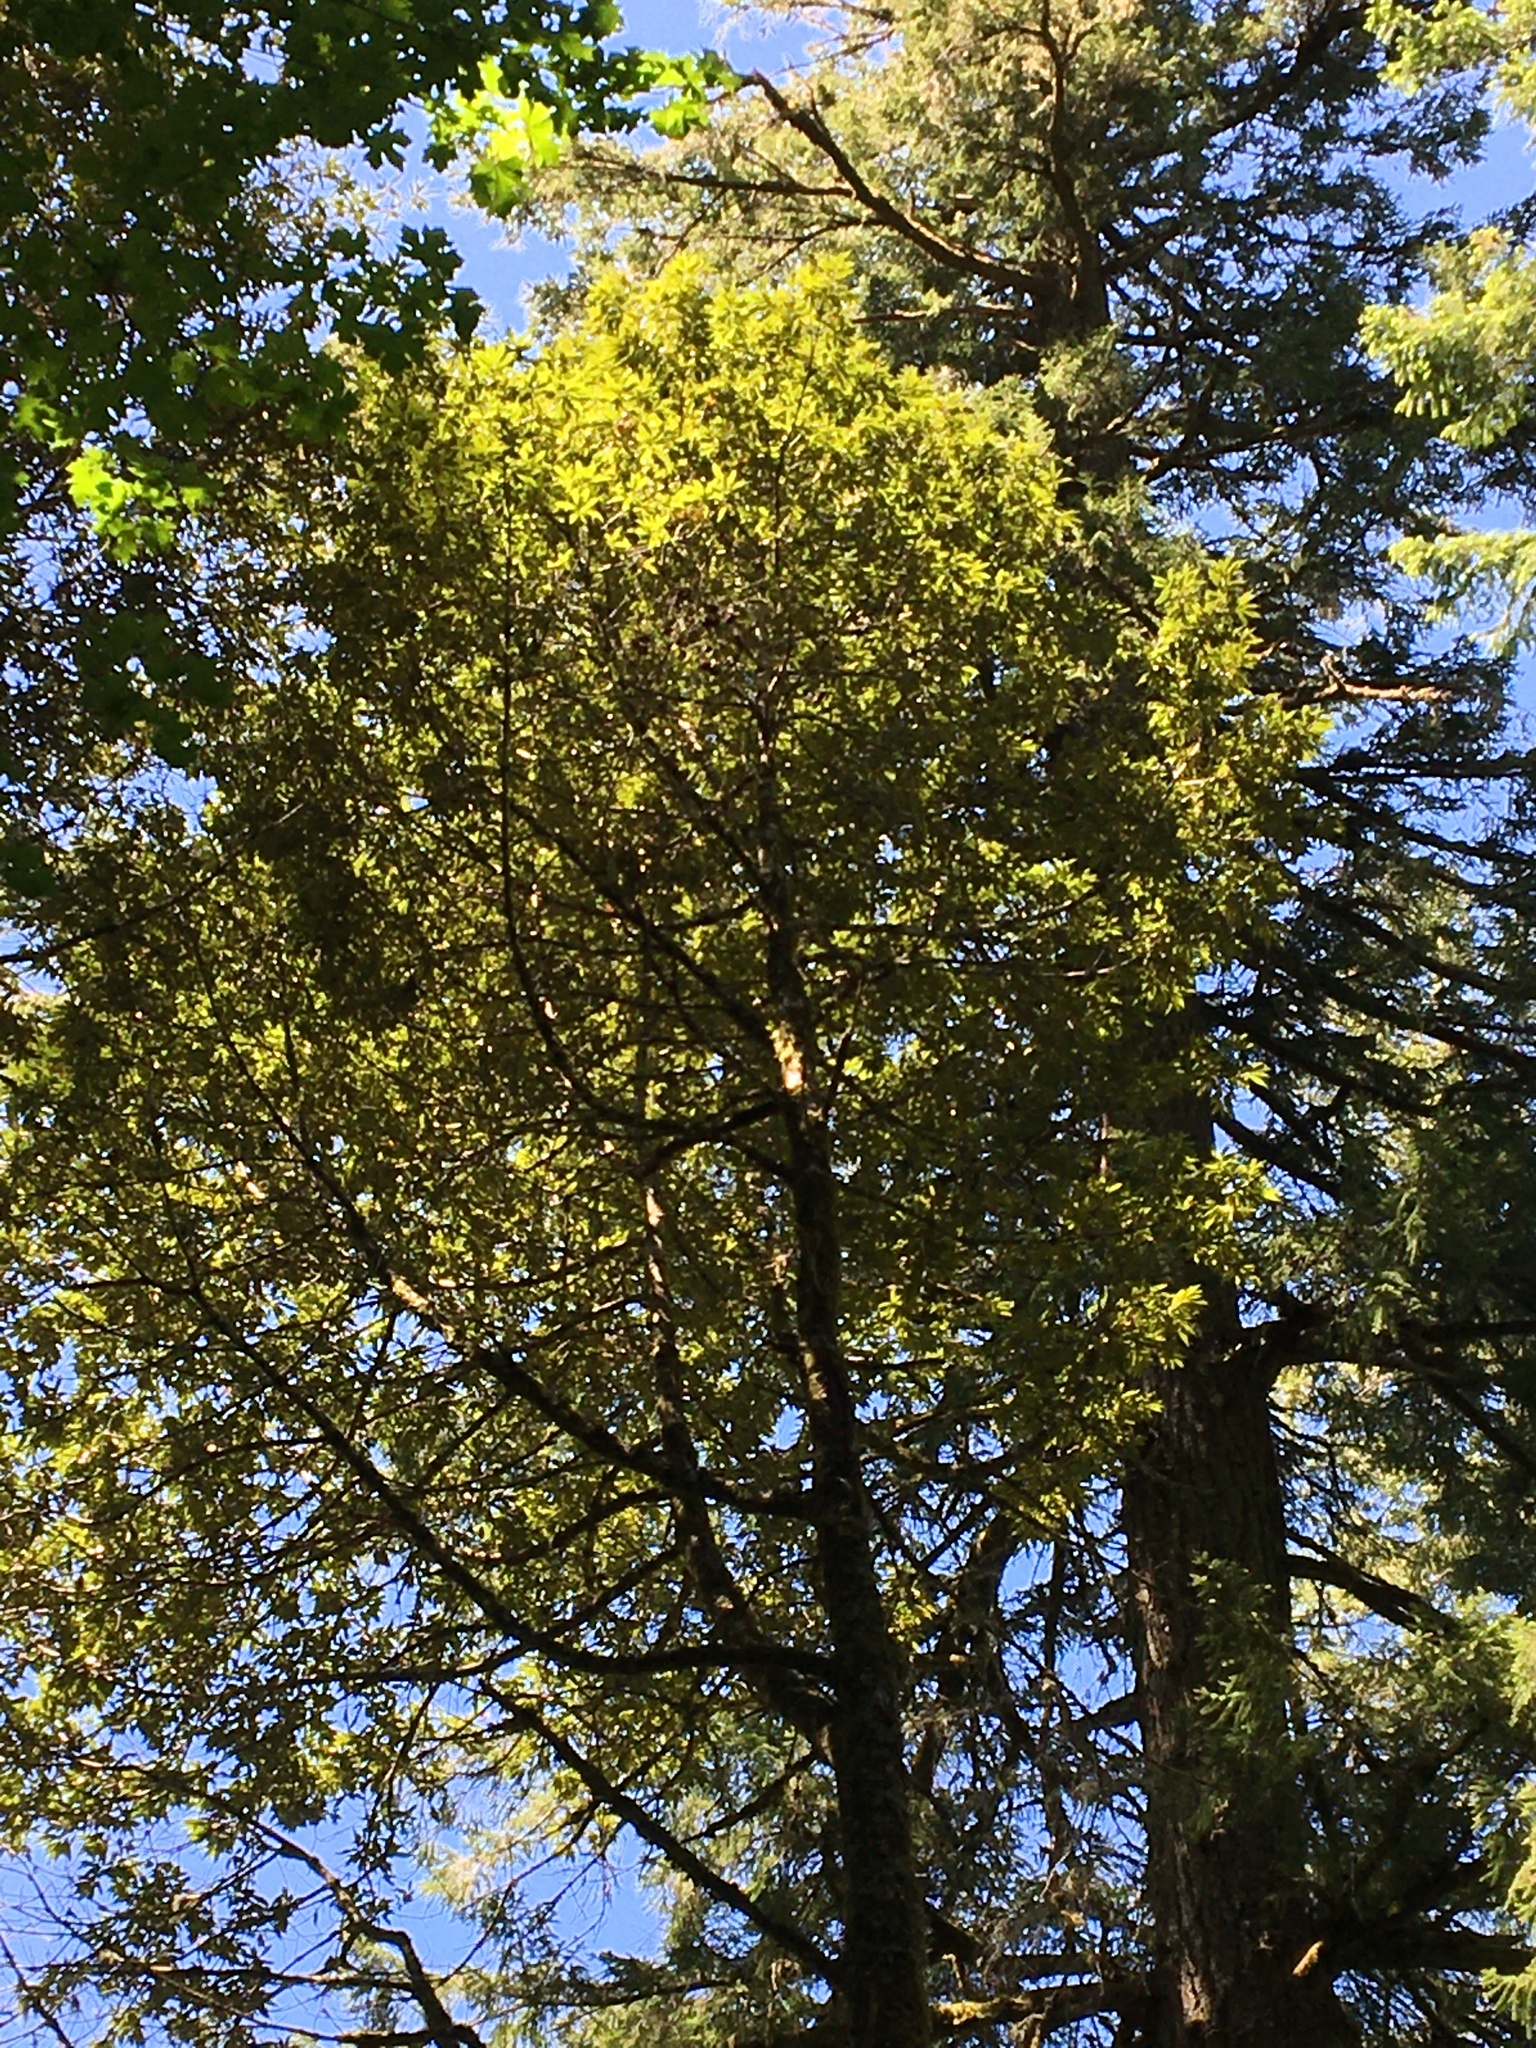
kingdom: Plantae
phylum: Tracheophyta
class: Magnoliopsida
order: Fagales
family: Fagaceae
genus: Chrysolepis
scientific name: Chrysolepis chrysophylla
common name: Giant chinquapin
